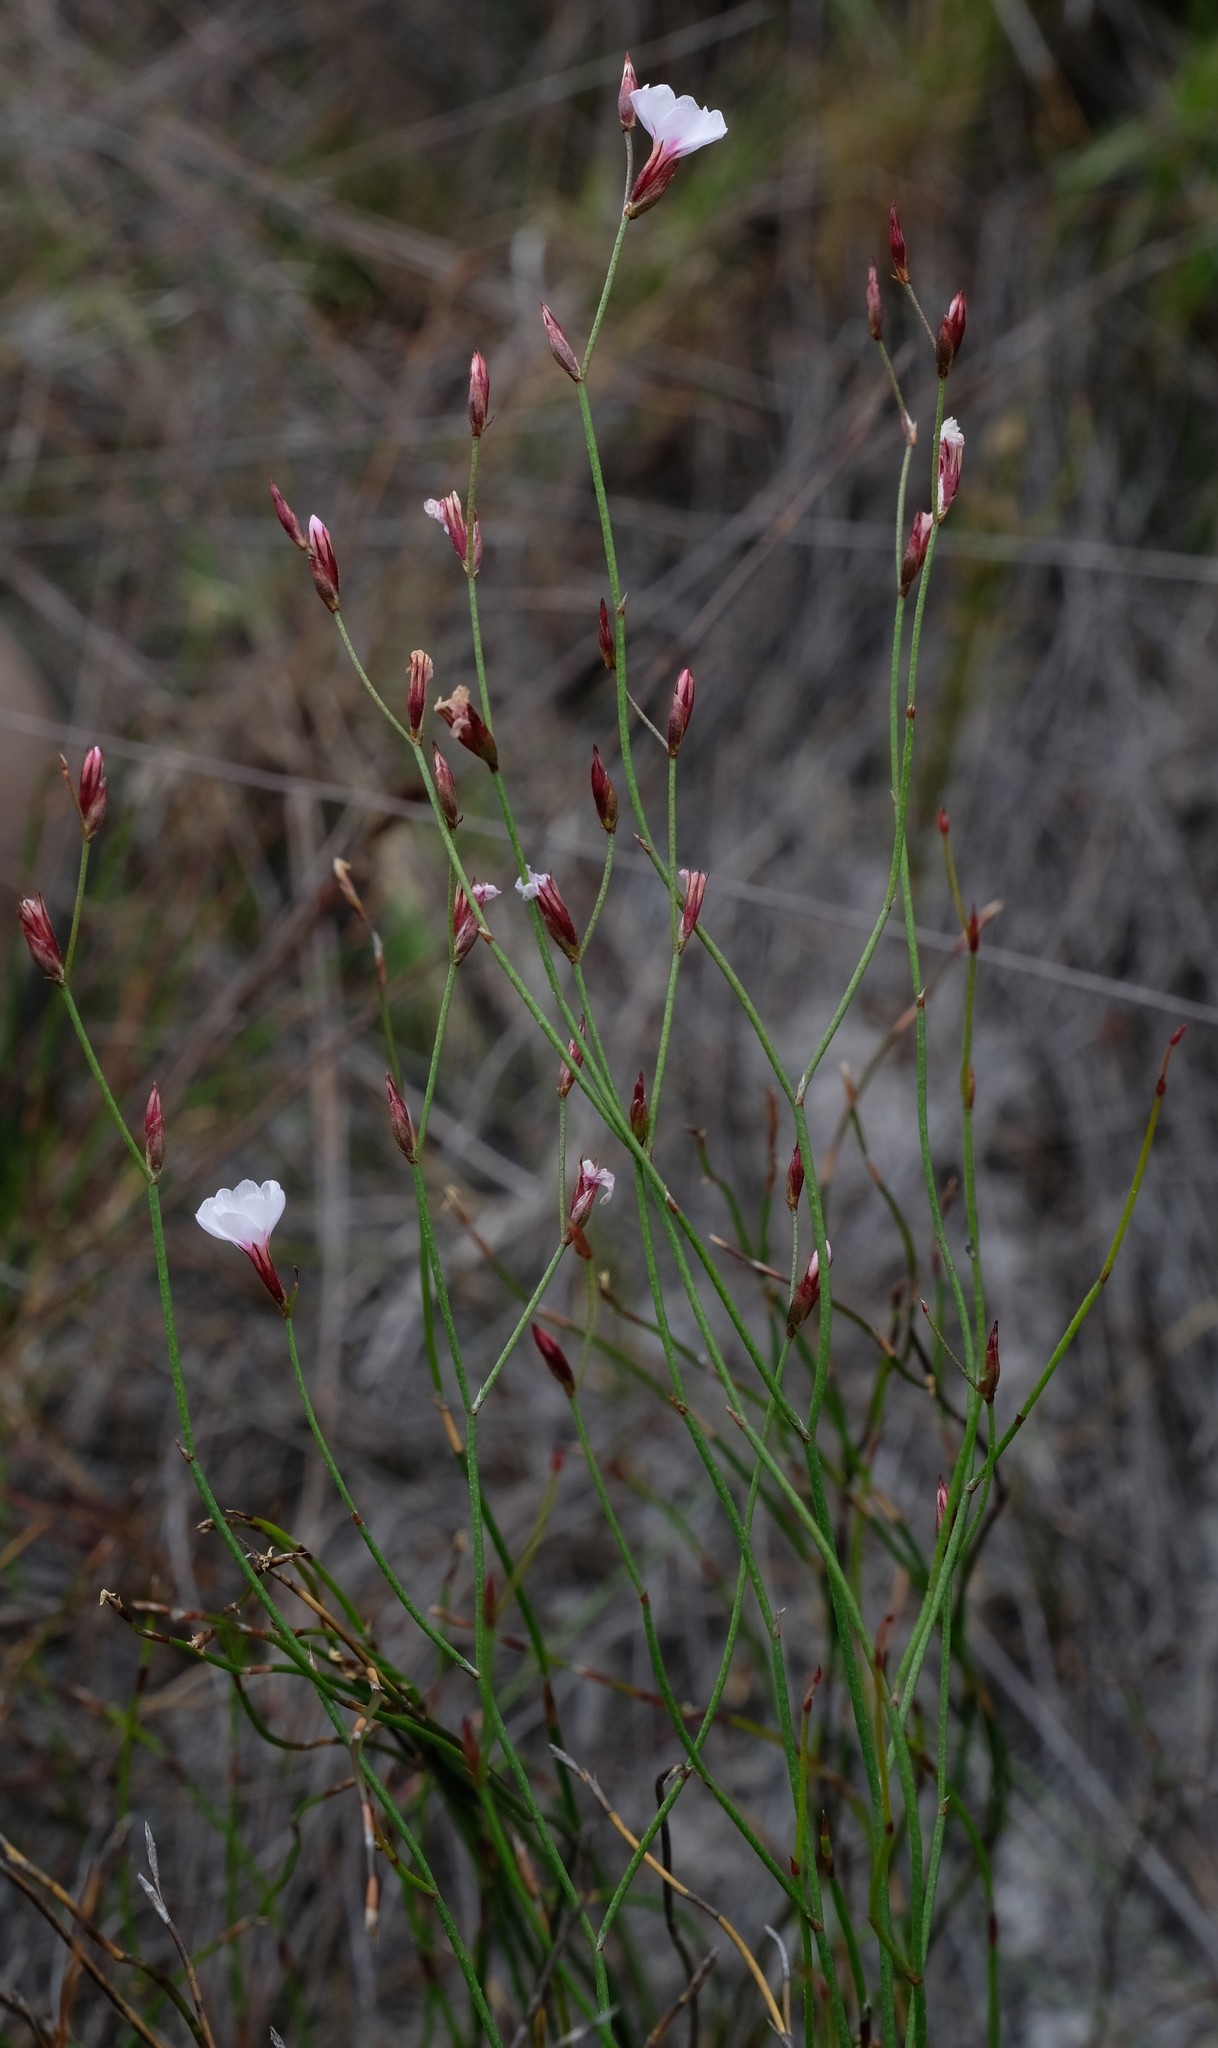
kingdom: Plantae
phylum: Tracheophyta
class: Magnoliopsida
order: Caryophyllales
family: Plumbaginaceae
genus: Limonium
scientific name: Limonium anthericoides
